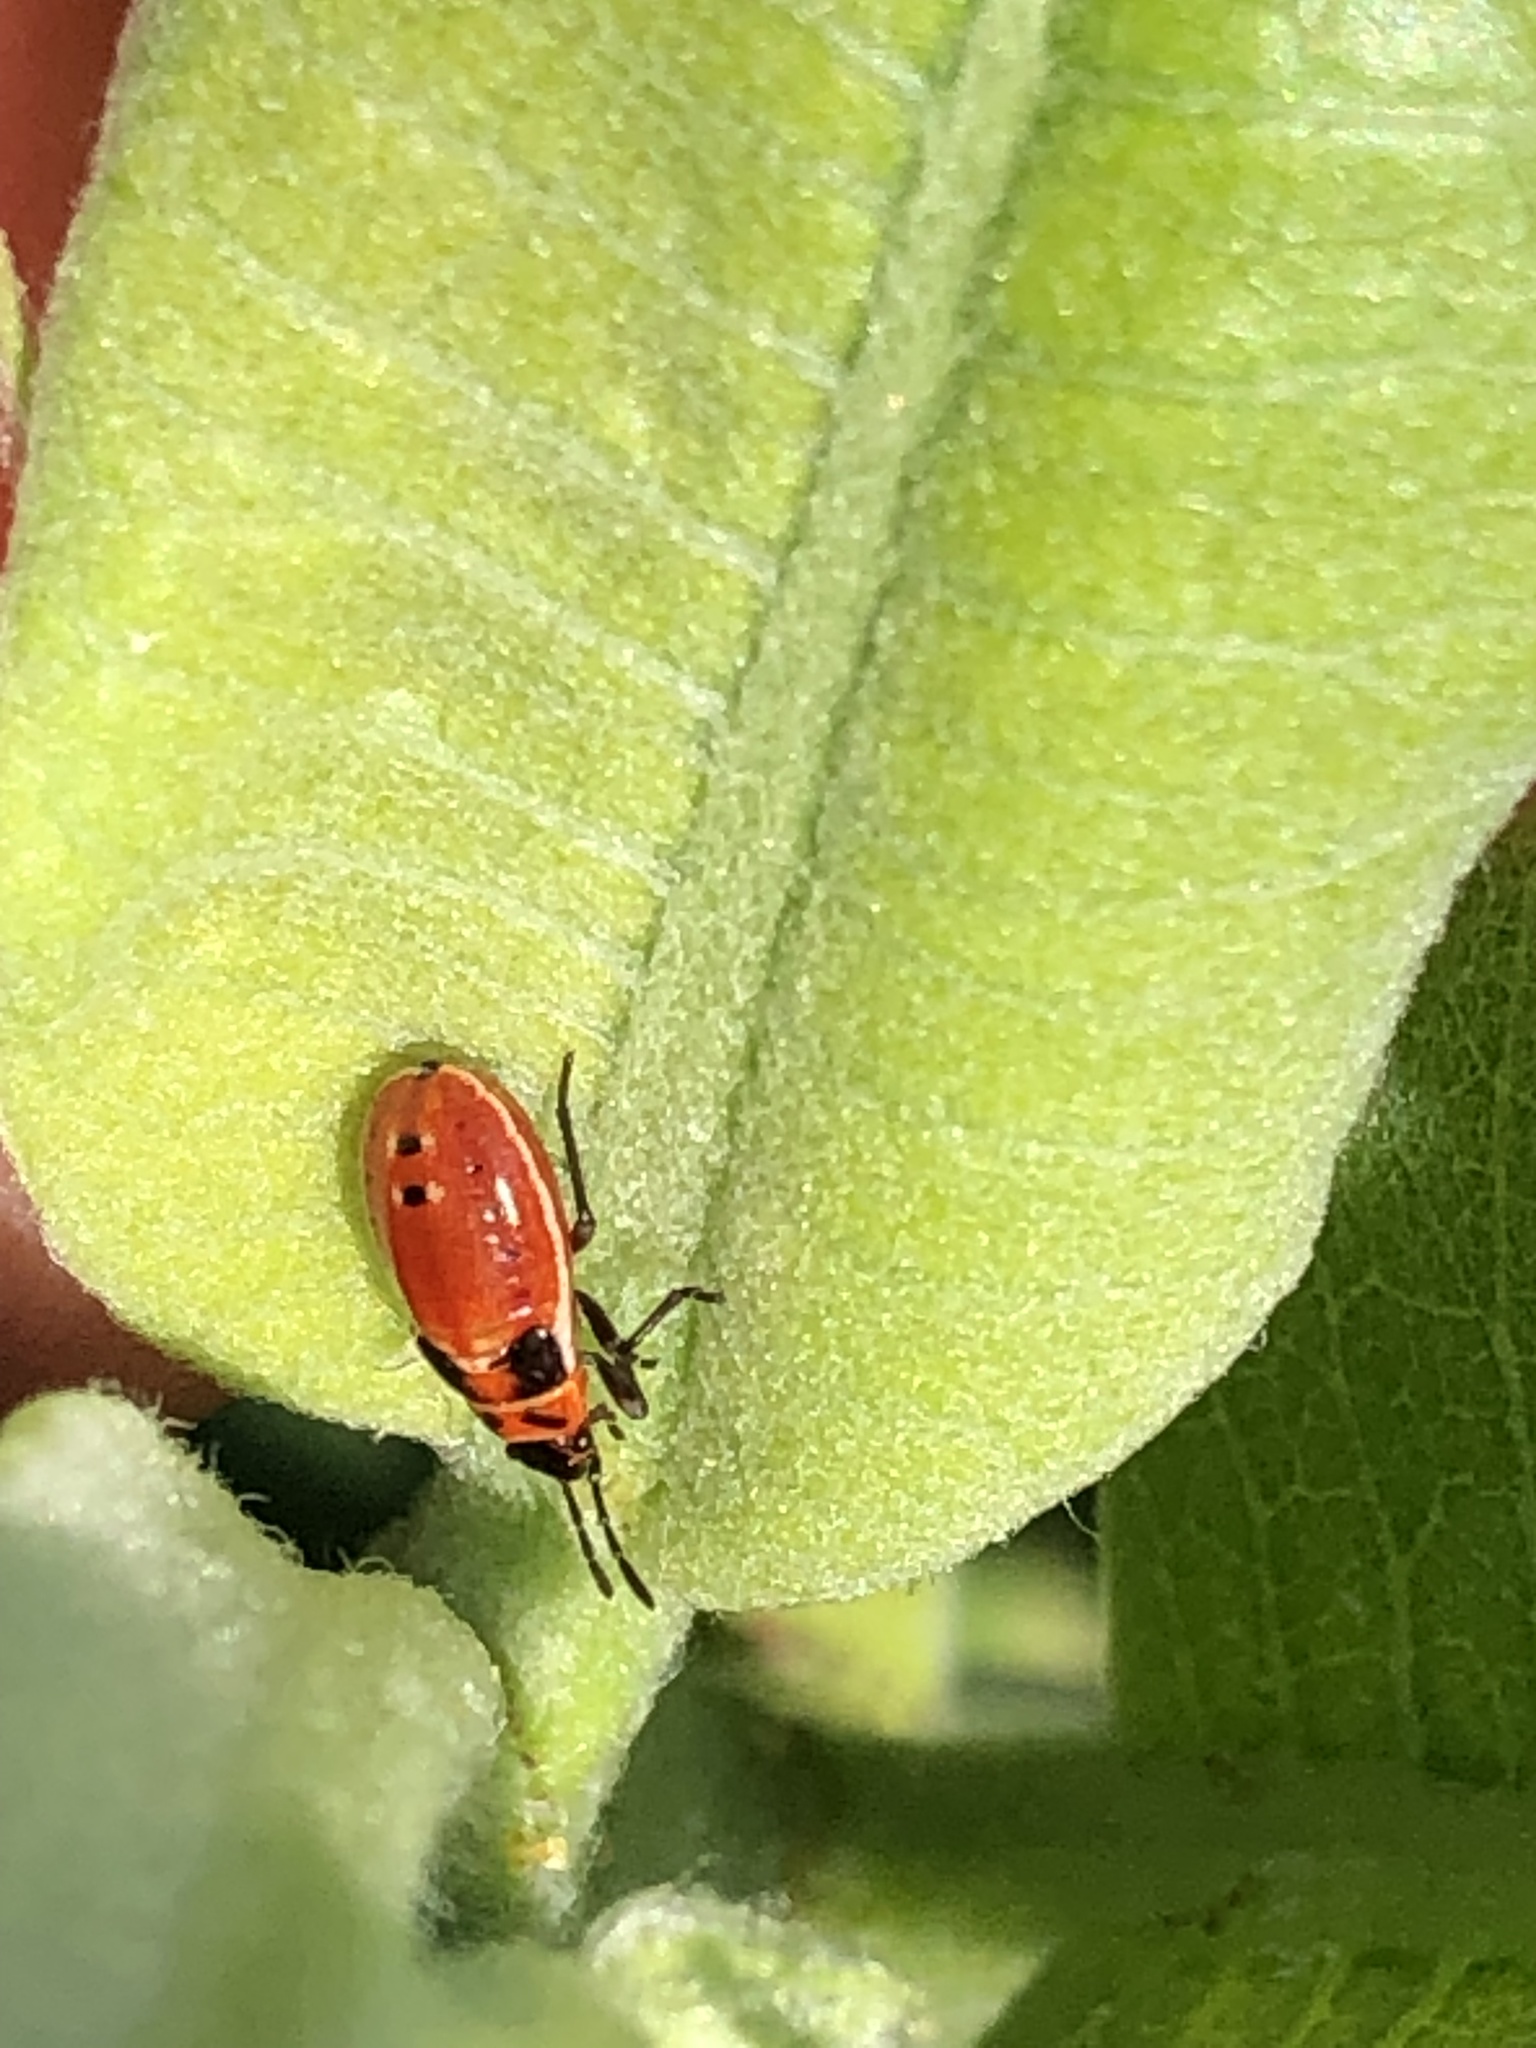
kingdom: Animalia
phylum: Arthropoda
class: Insecta
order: Hemiptera
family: Lygaeidae
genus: Lygaeus
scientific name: Lygaeus kalmii
